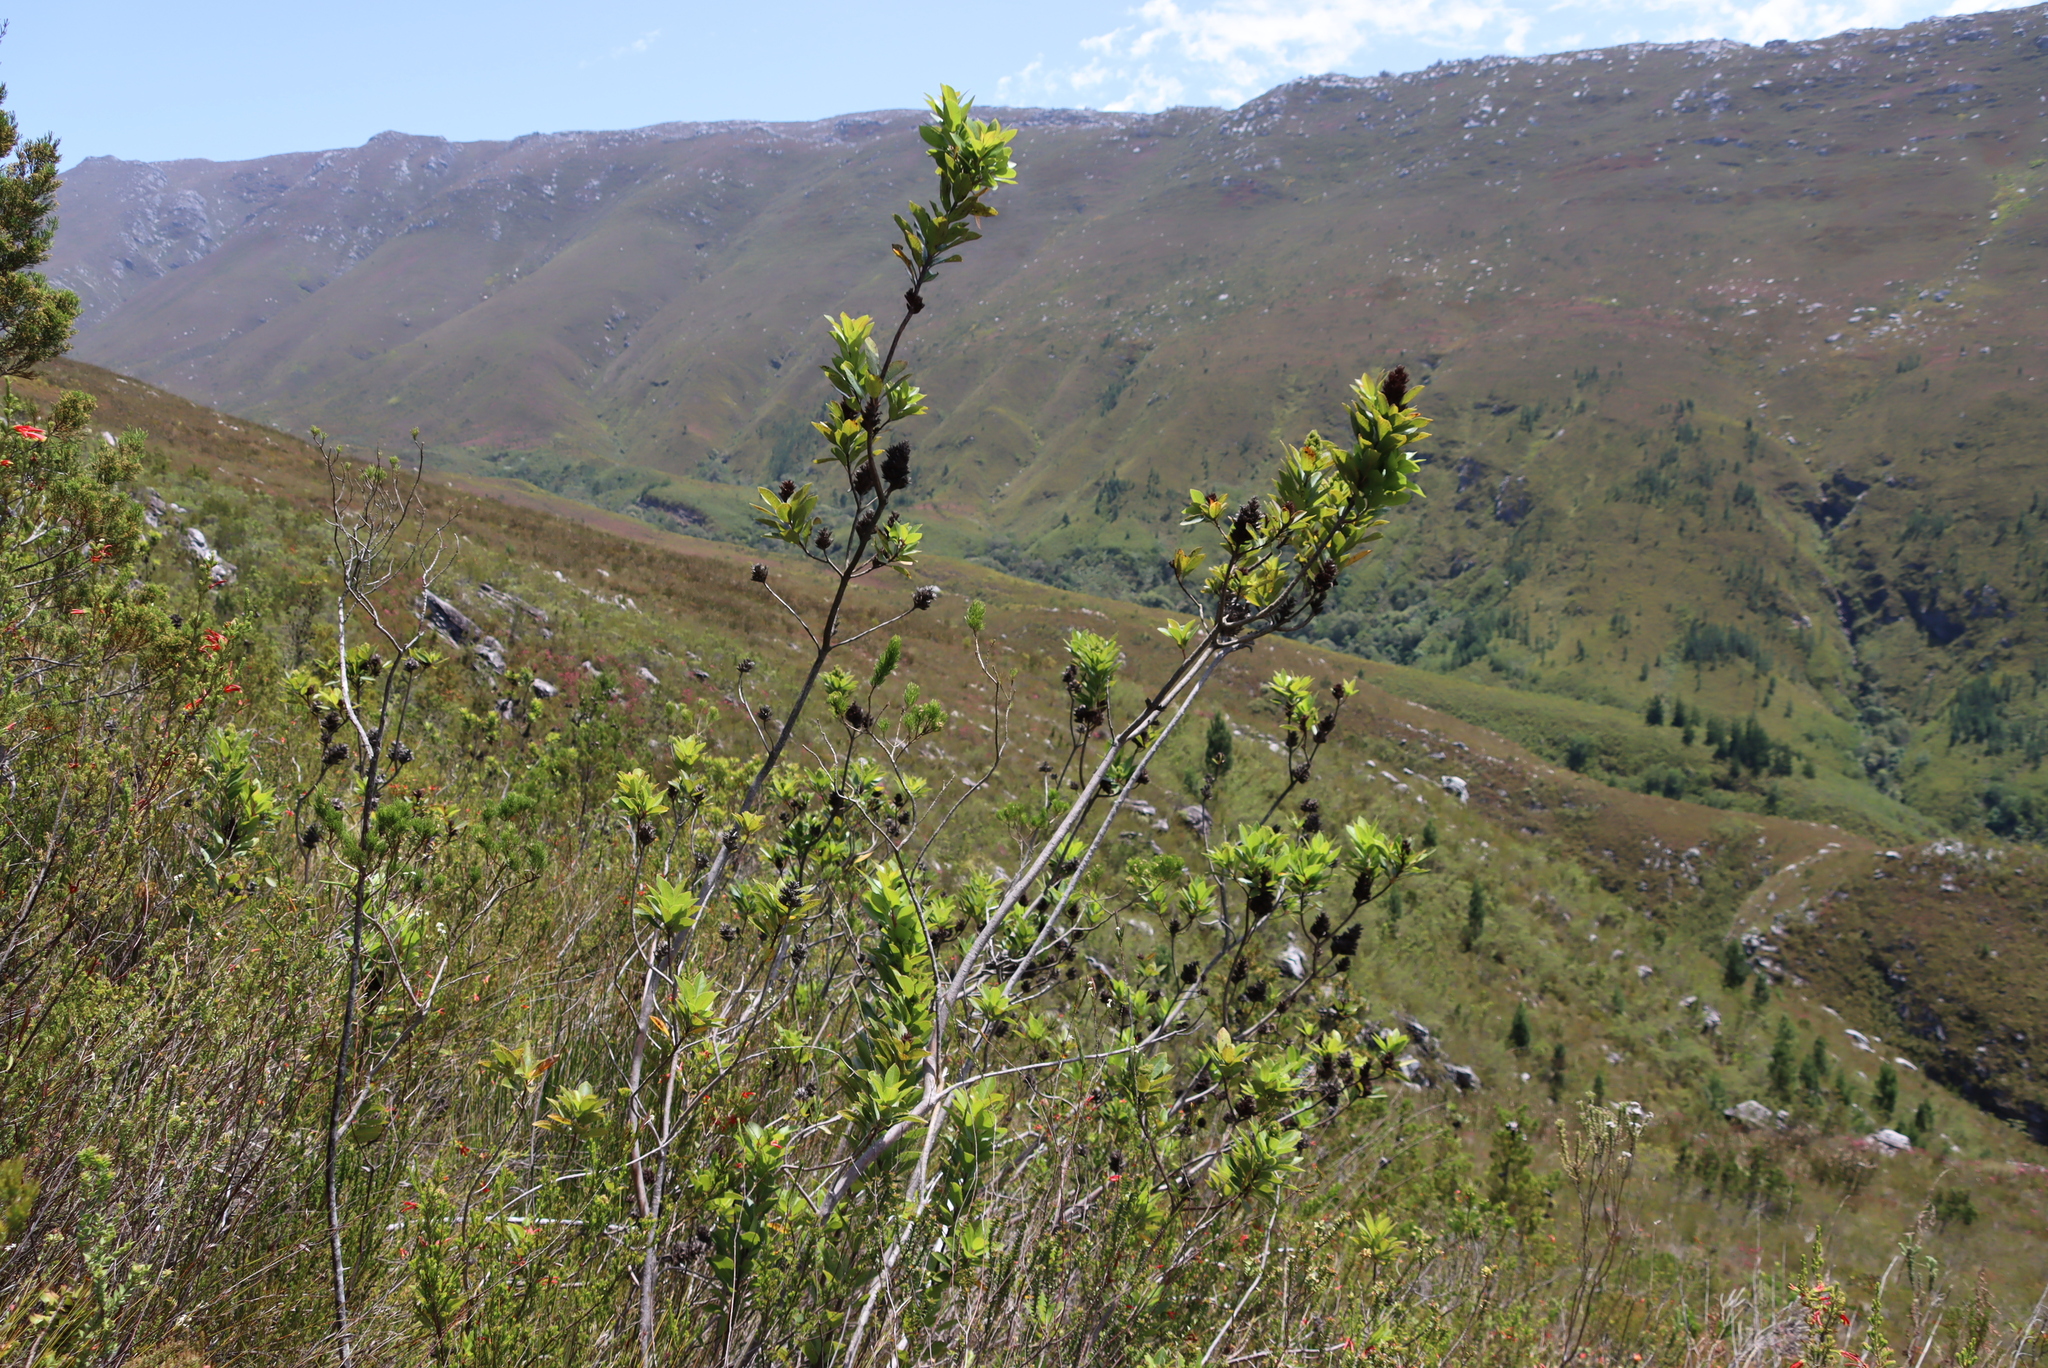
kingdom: Plantae
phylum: Tracheophyta
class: Magnoliopsida
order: Sapindales
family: Anacardiaceae
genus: Laurophyllus
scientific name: Laurophyllus capensis
